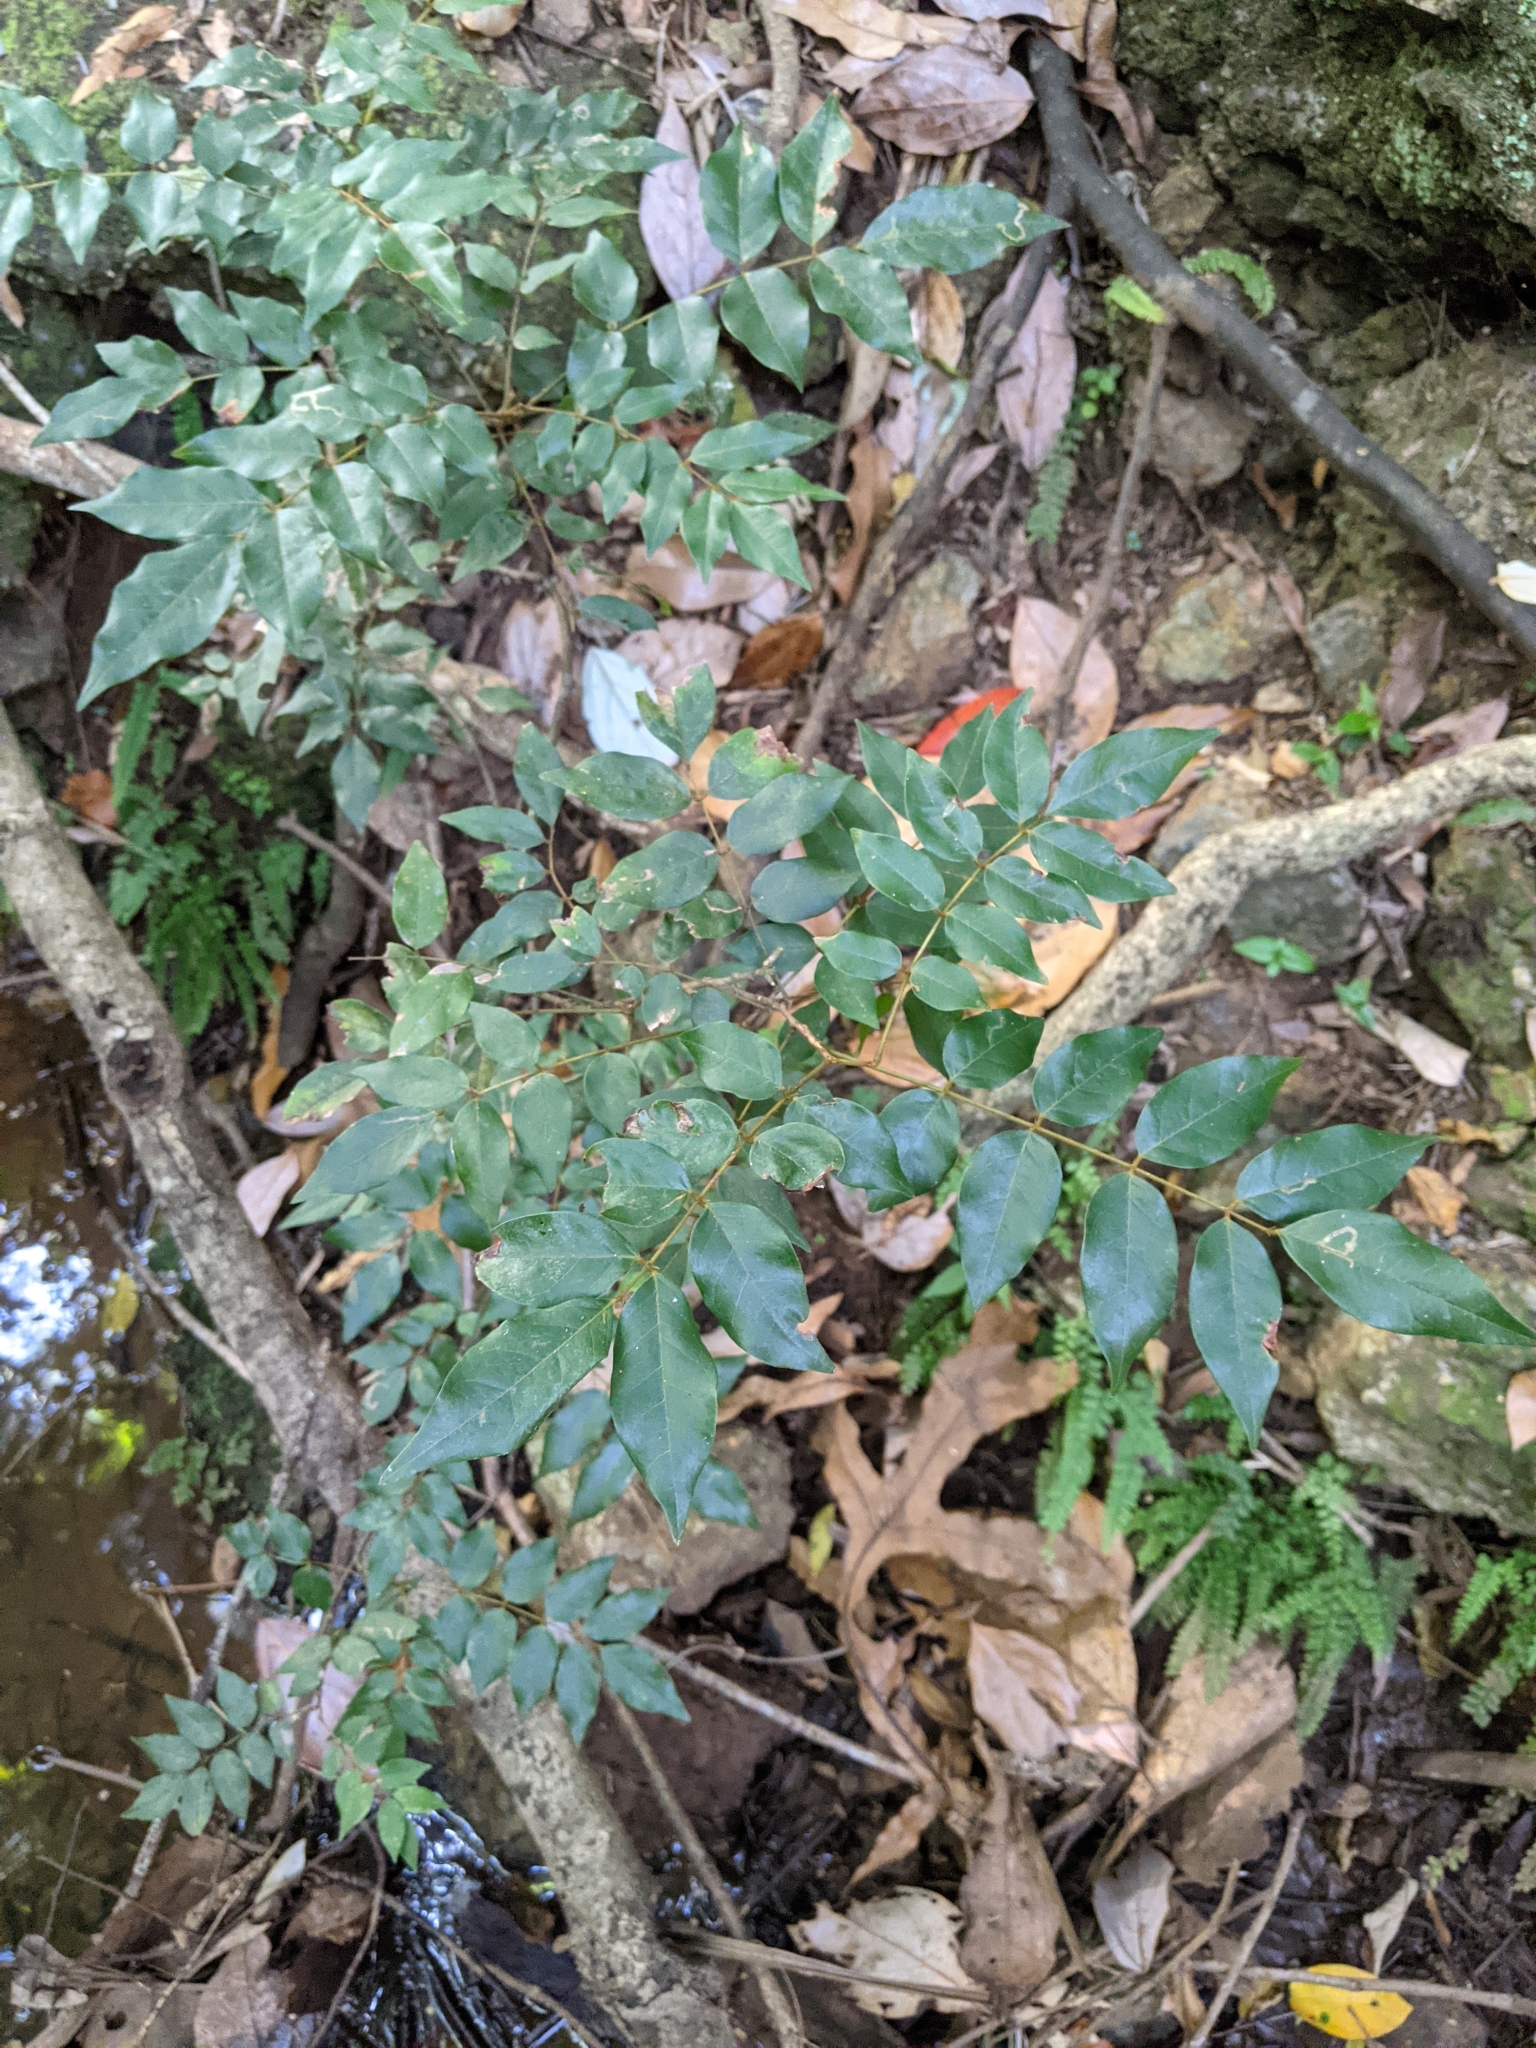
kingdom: Plantae
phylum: Tracheophyta
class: Magnoliopsida
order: Fabales
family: Fabaceae
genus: Austrosteenisia
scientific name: Austrosteenisia blackii
